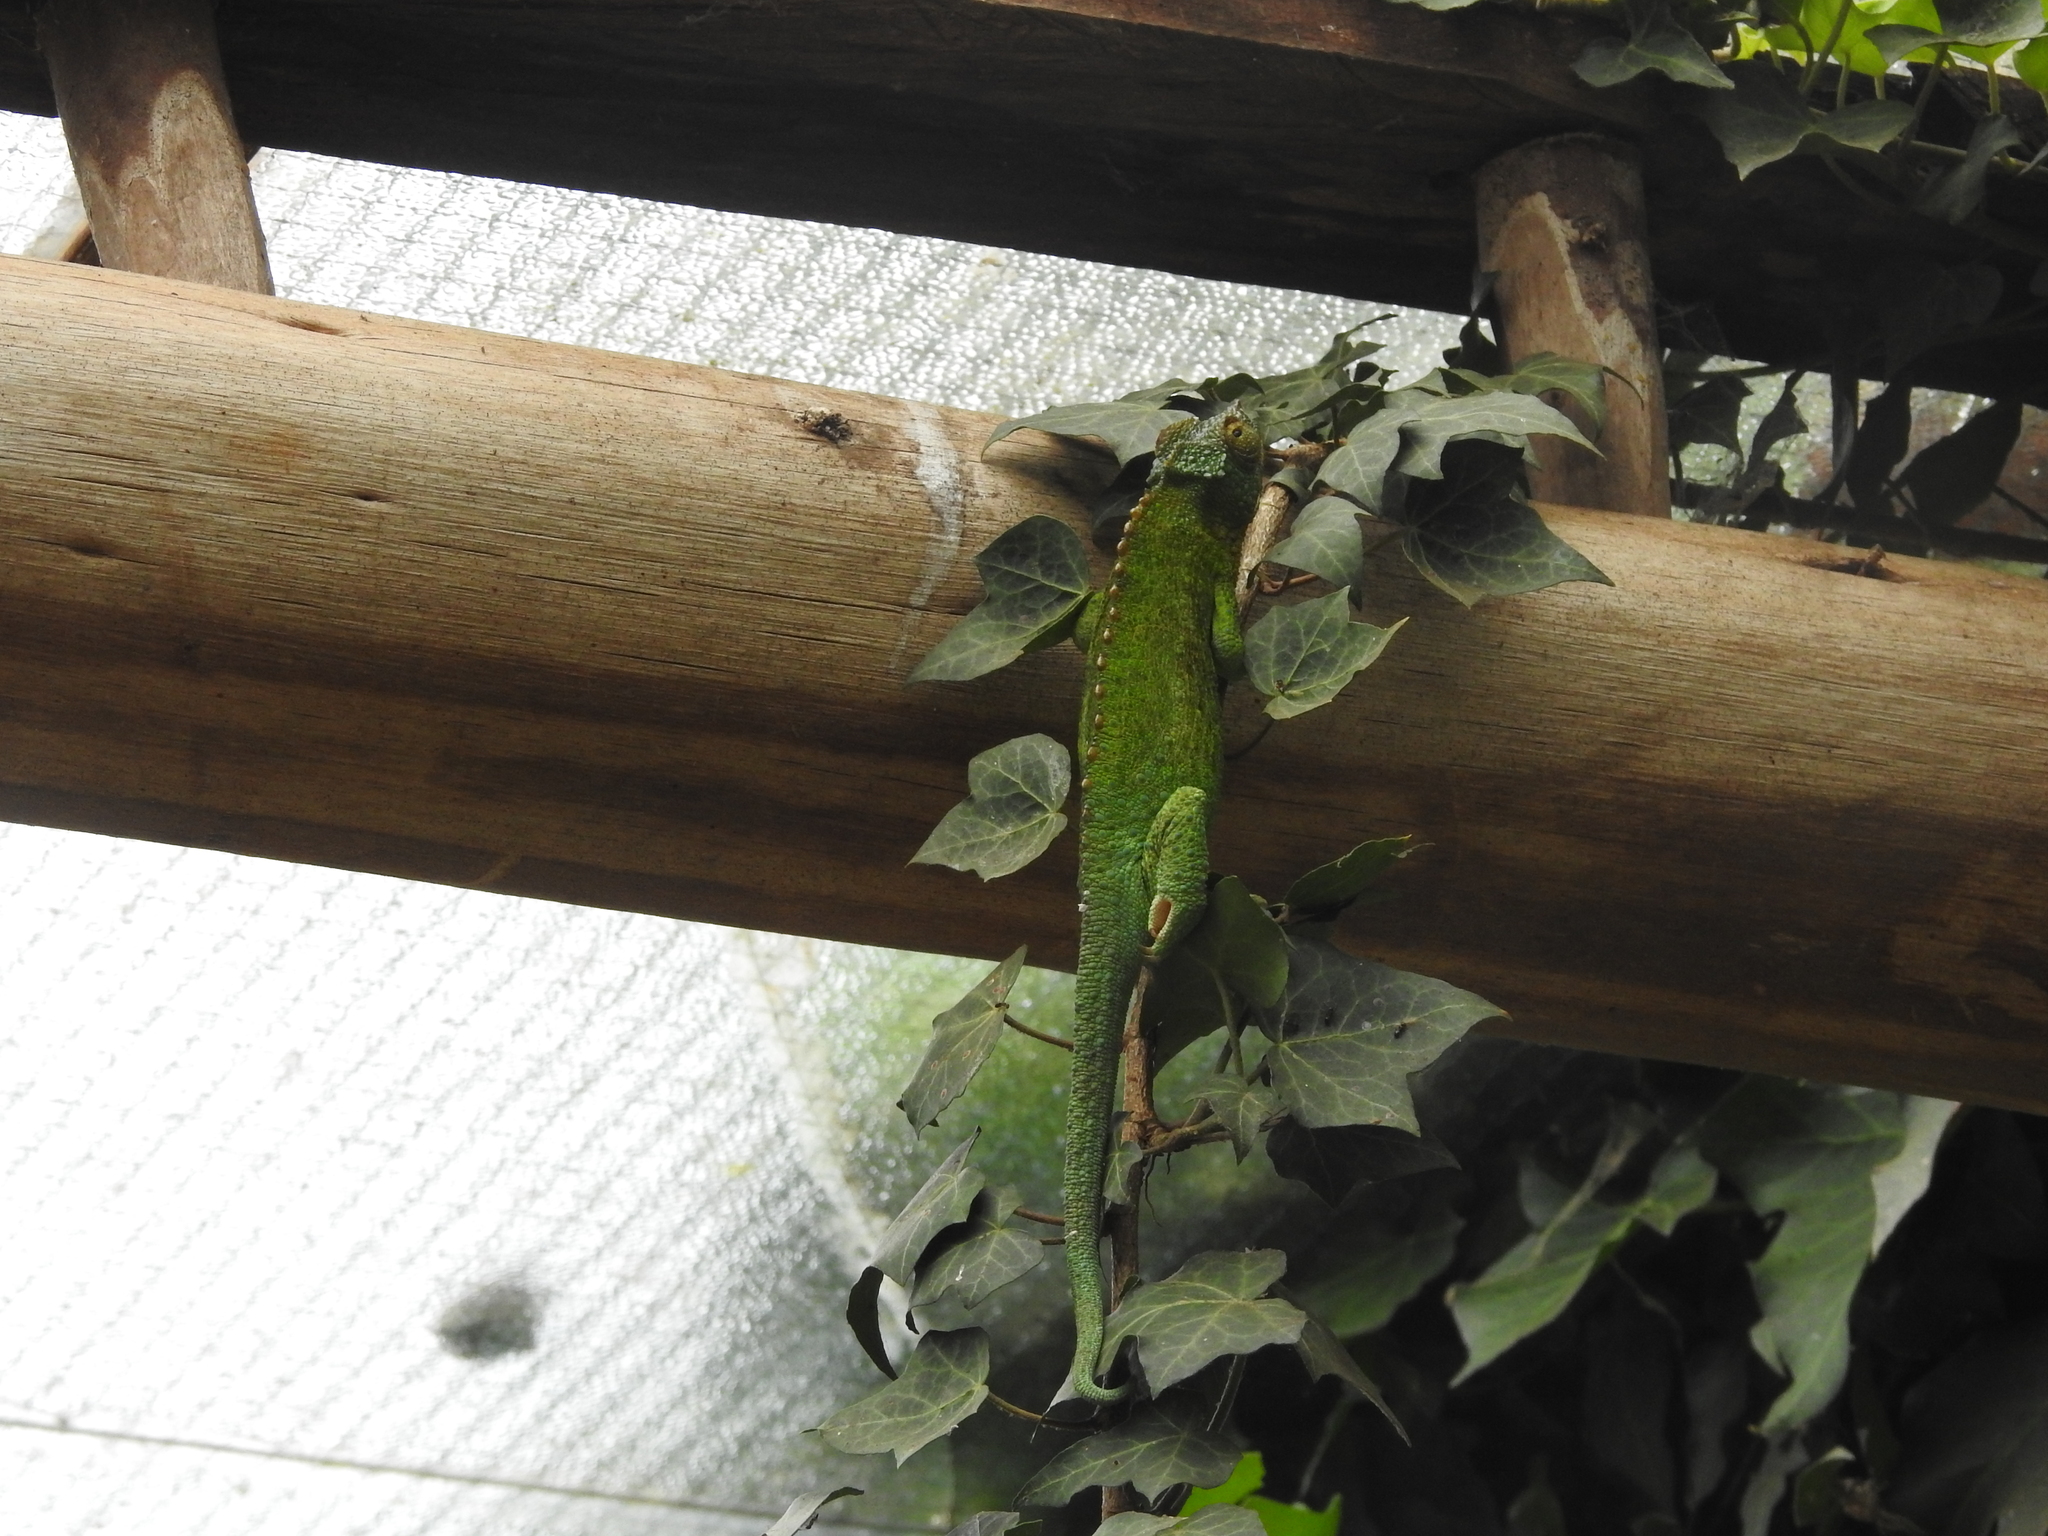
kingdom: Animalia
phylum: Chordata
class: Squamata
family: Chamaeleonidae
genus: Trioceros
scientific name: Trioceros jacksonii
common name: Jackson's chameleon
